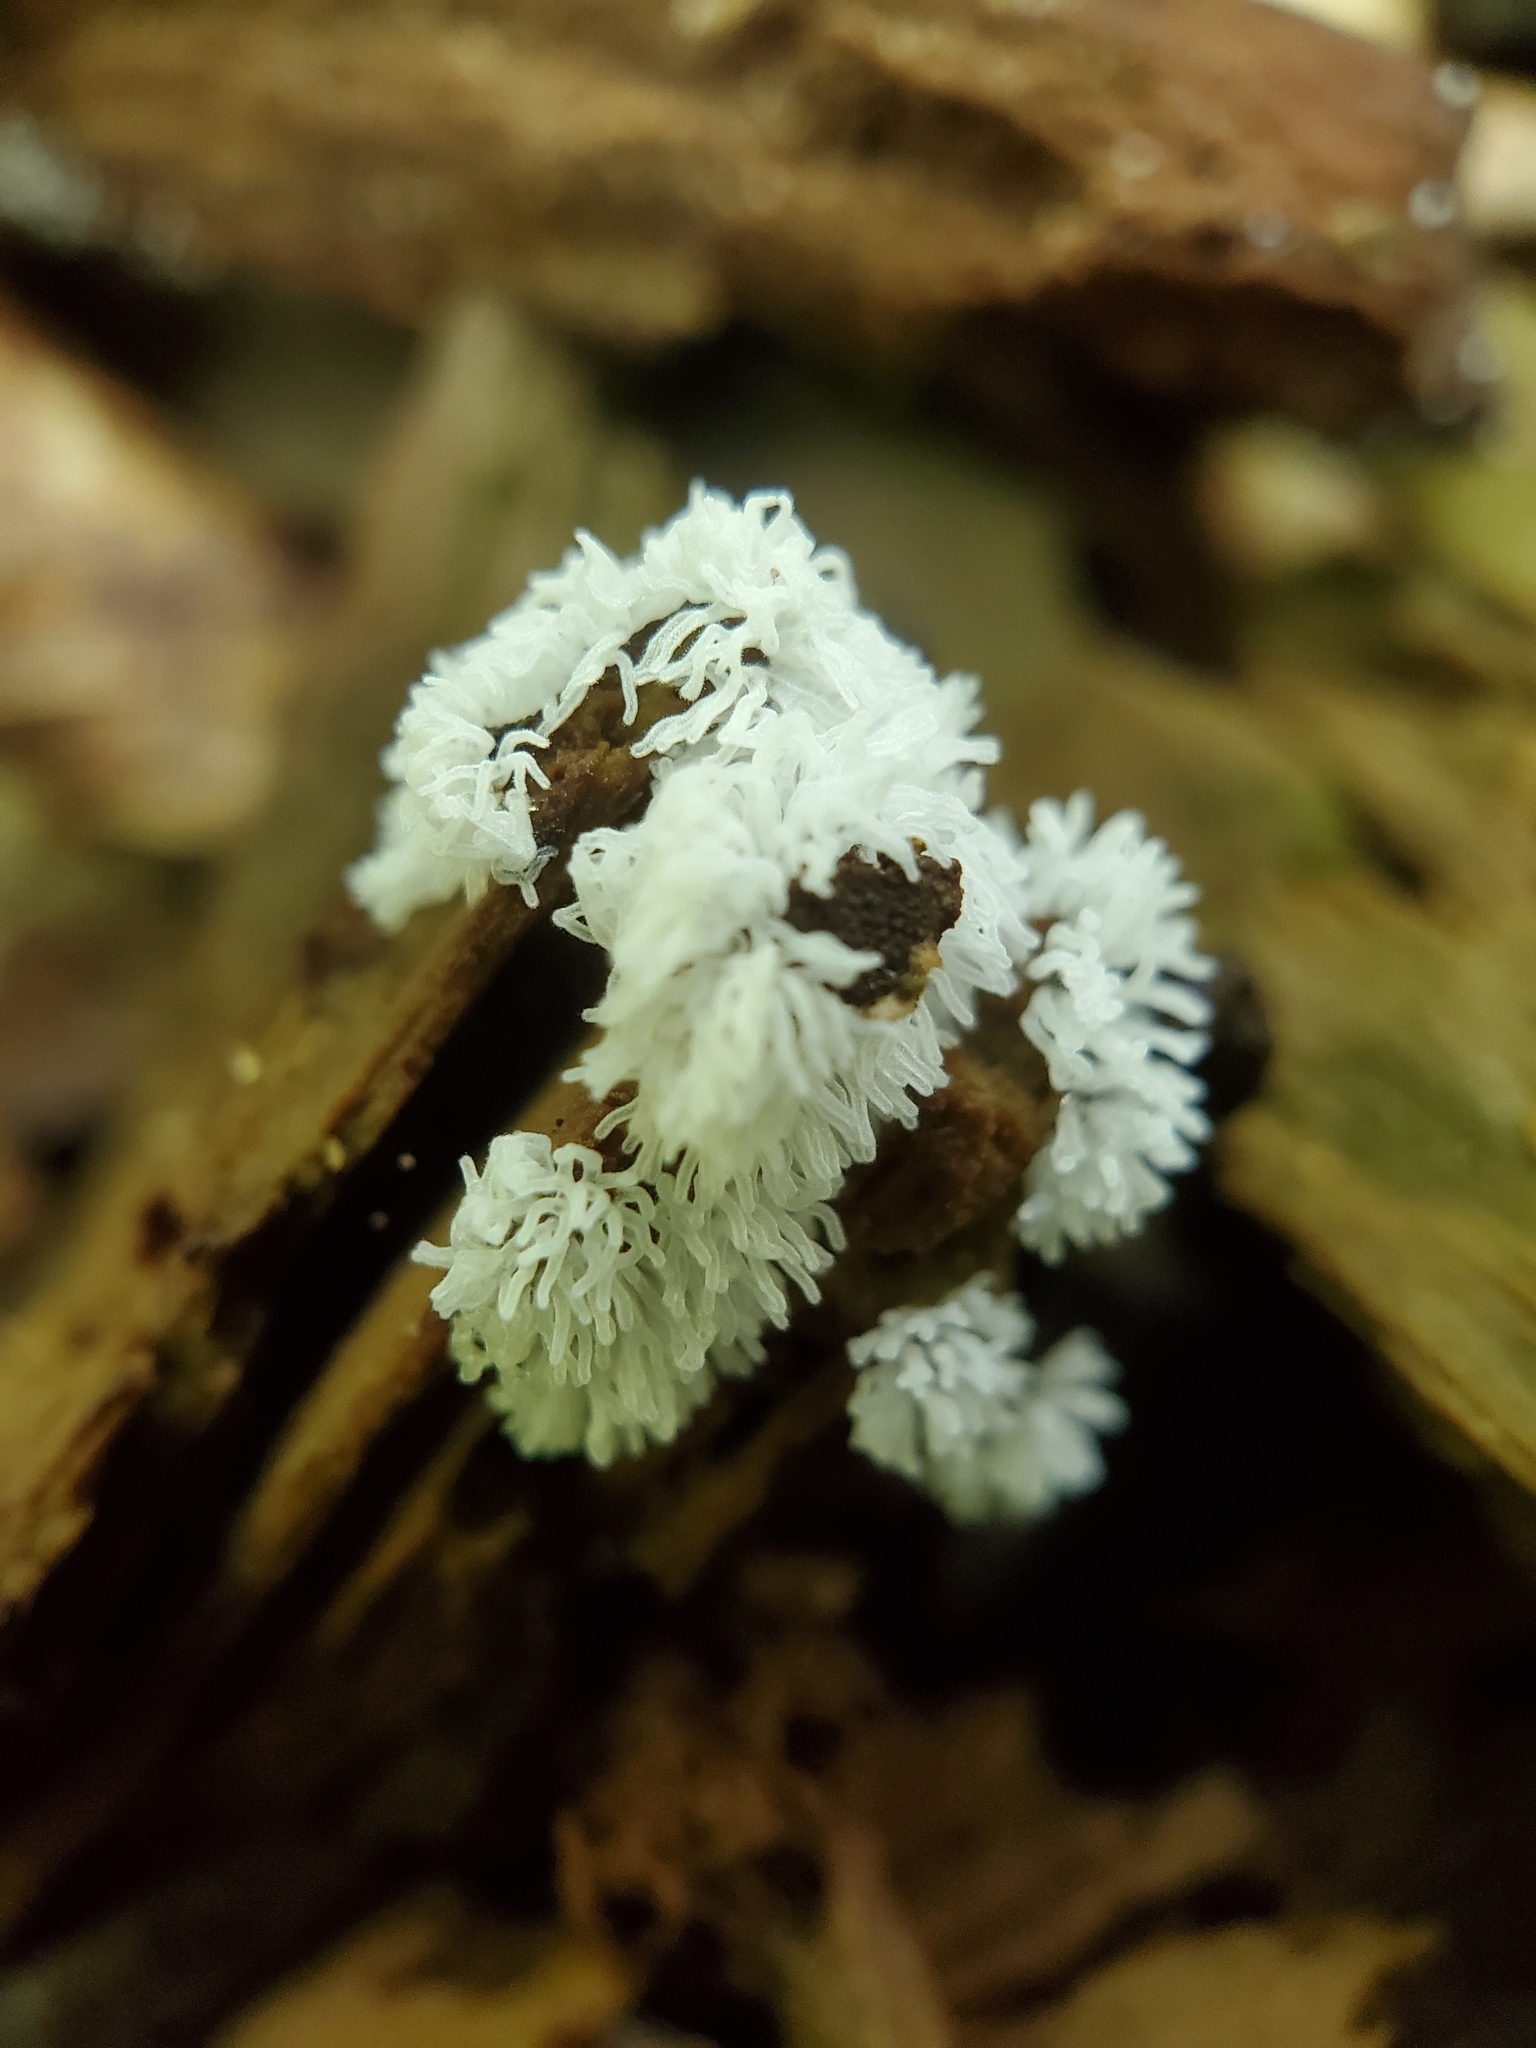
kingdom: Protozoa
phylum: Mycetozoa
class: Protosteliomycetes
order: Ceratiomyxales
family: Ceratiomyxaceae
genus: Ceratiomyxa
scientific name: Ceratiomyxa fruticulosa
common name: Honeycomb coral slime mold
